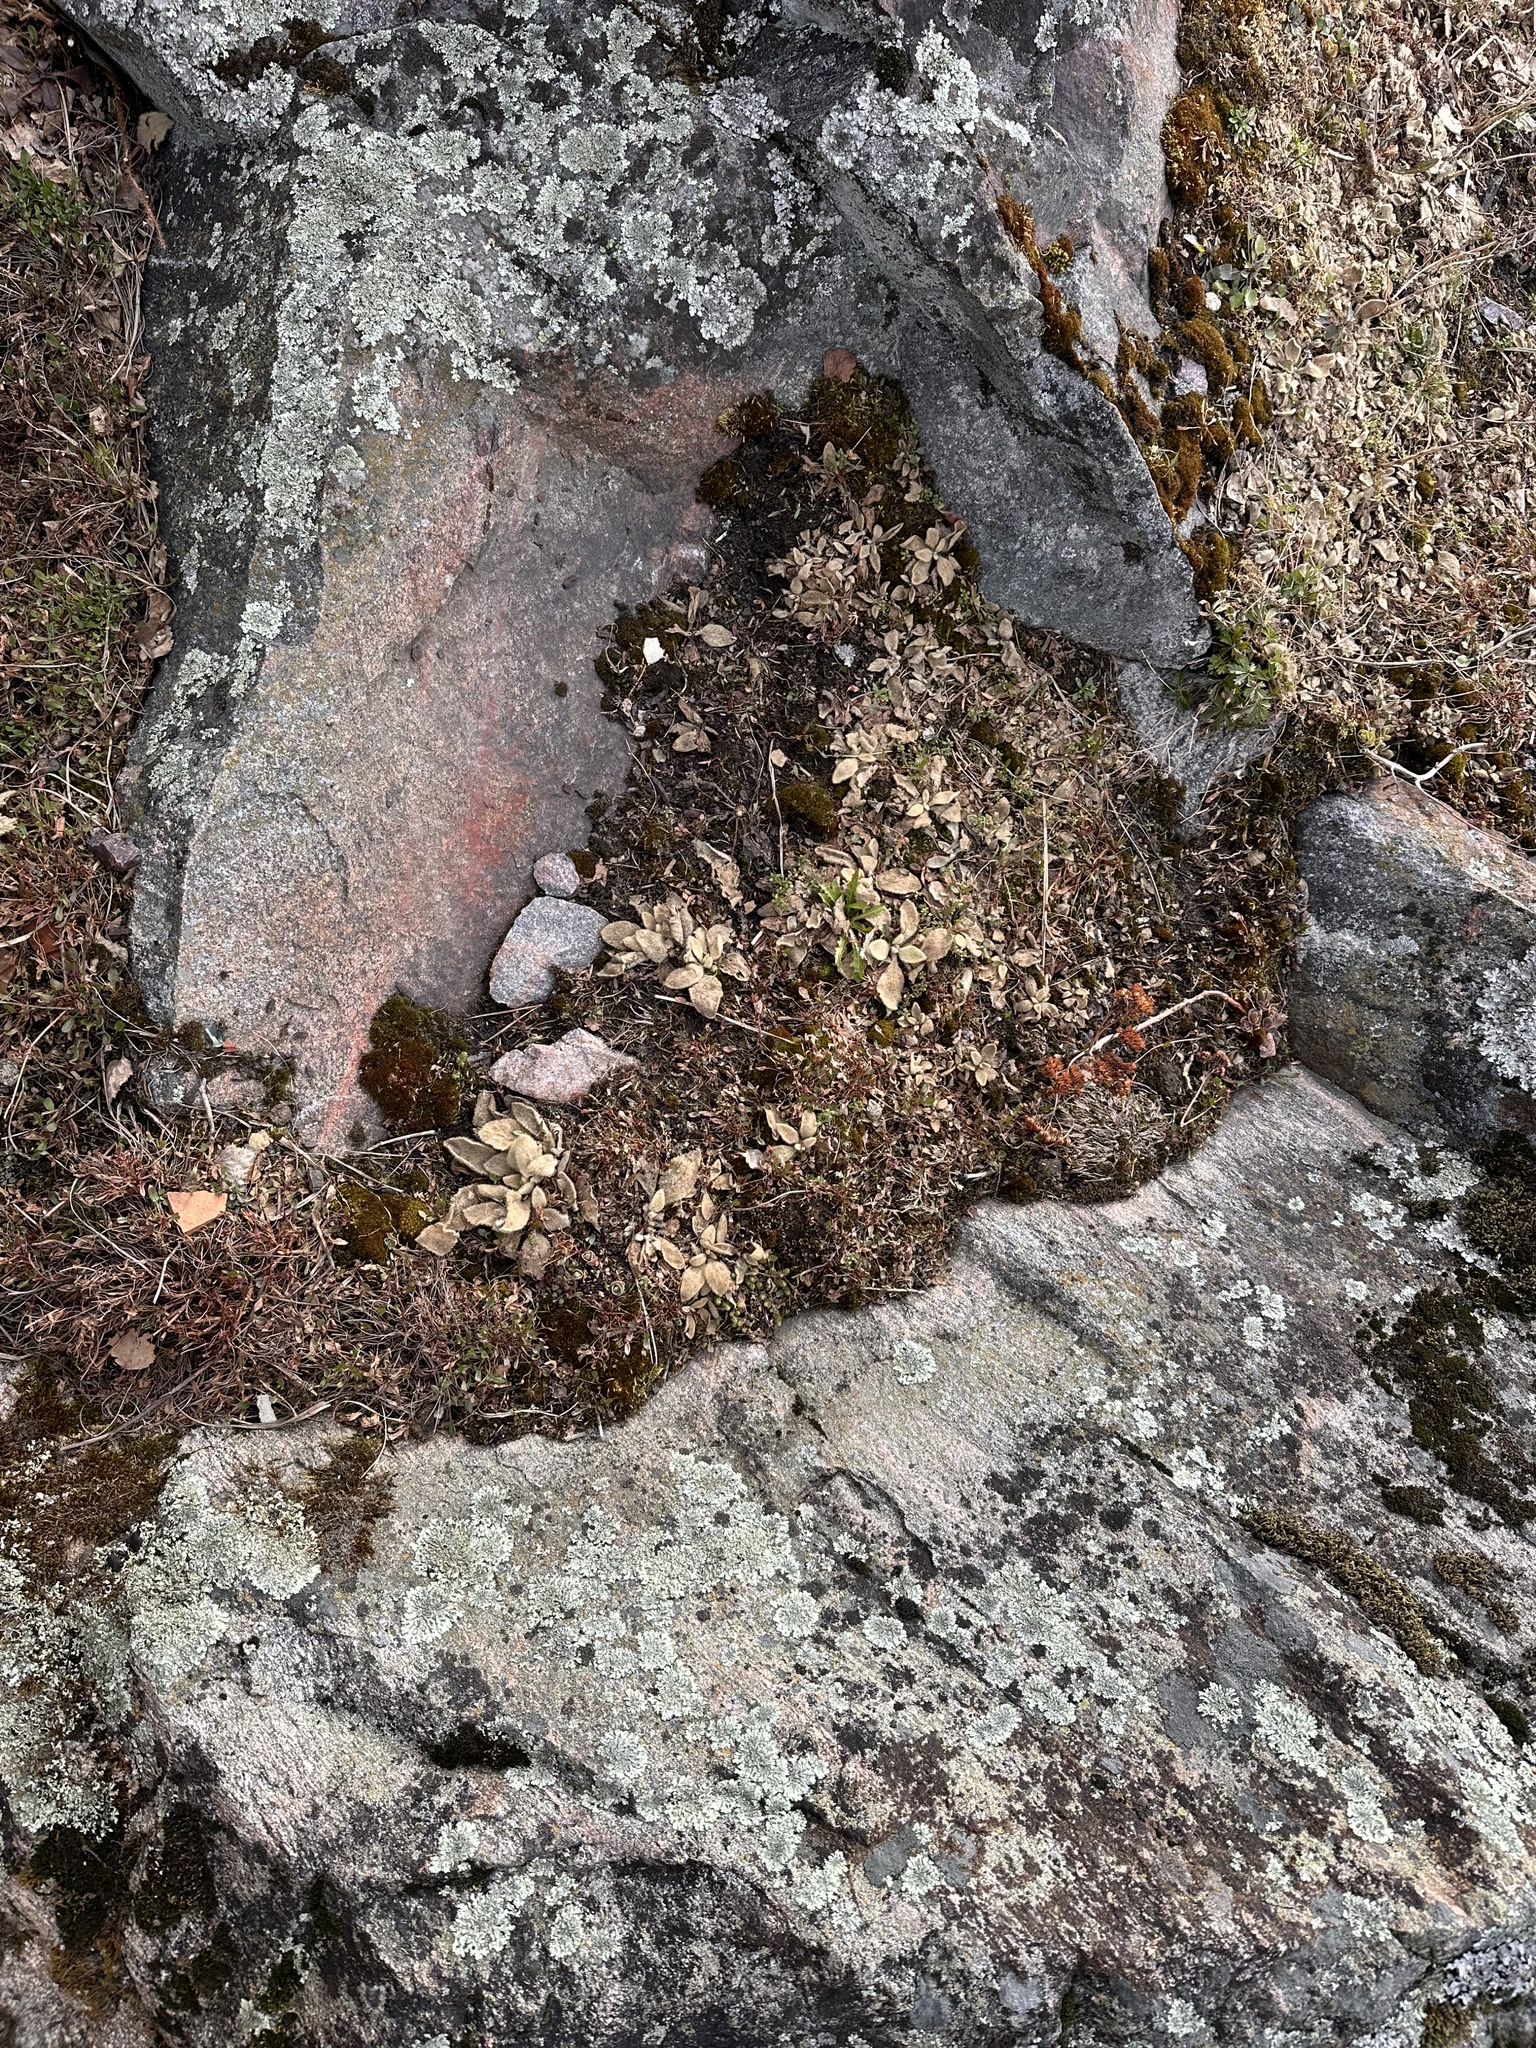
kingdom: Plantae
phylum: Tracheophyta
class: Magnoliopsida
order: Lamiales
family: Scrophulariaceae
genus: Verbascum
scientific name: Verbascum thapsus
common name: Common mullein
